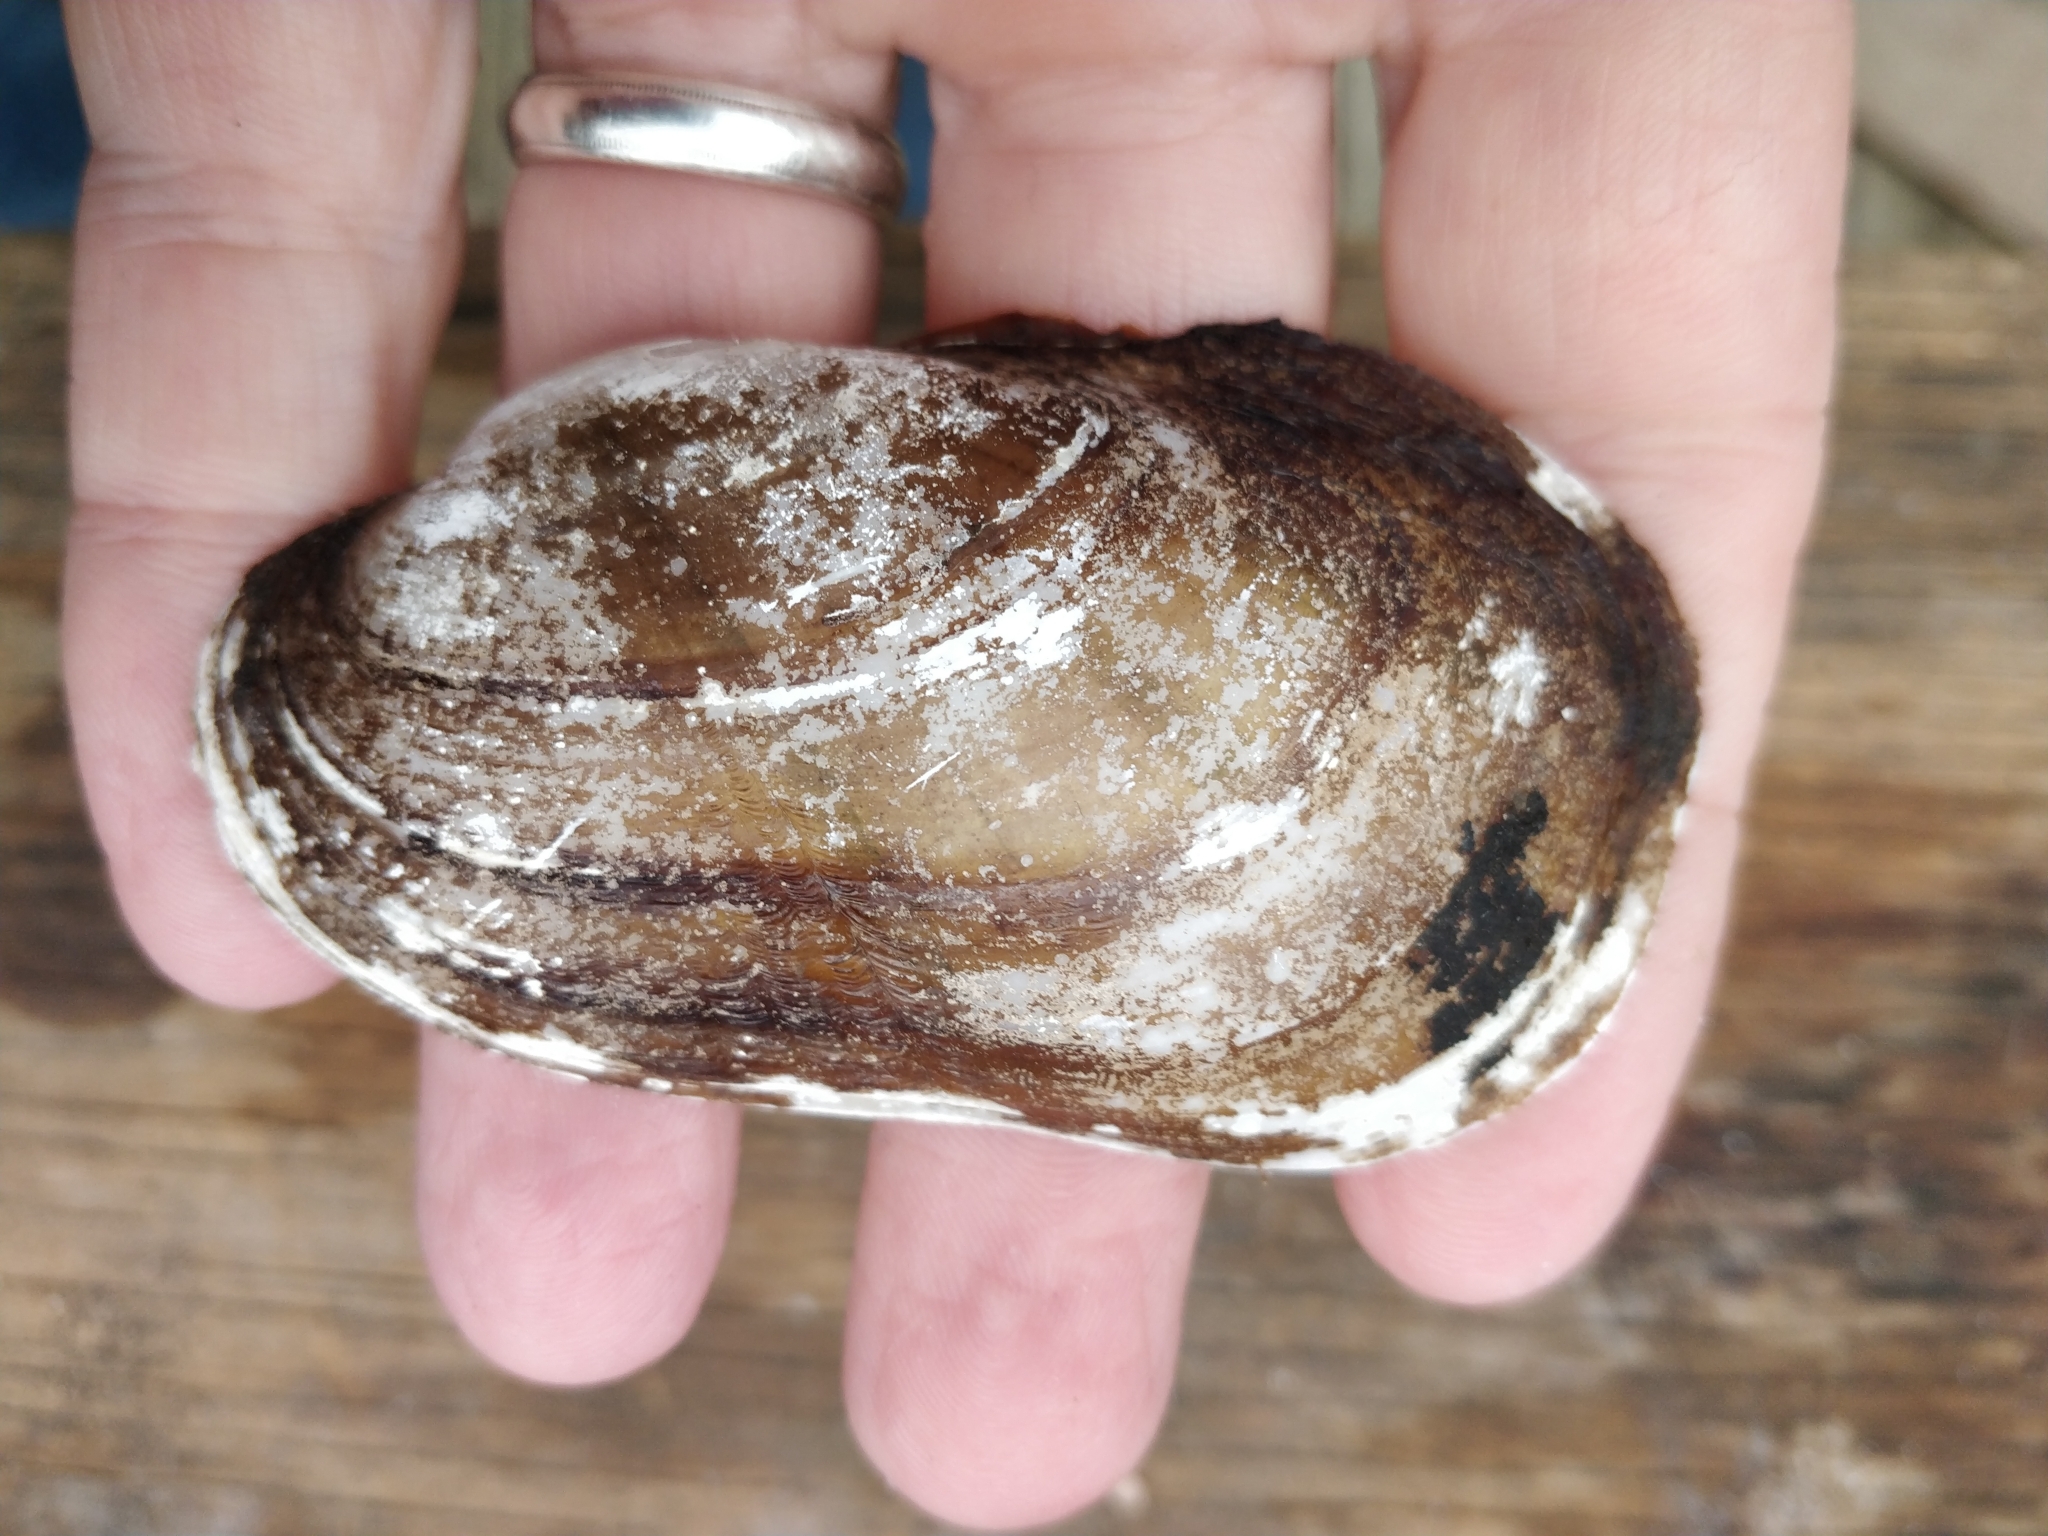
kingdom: Animalia
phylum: Mollusca
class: Bivalvia
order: Unionida
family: Unionidae
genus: Lampsilis
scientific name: Lampsilis siliquoidea
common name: Fatmucket
